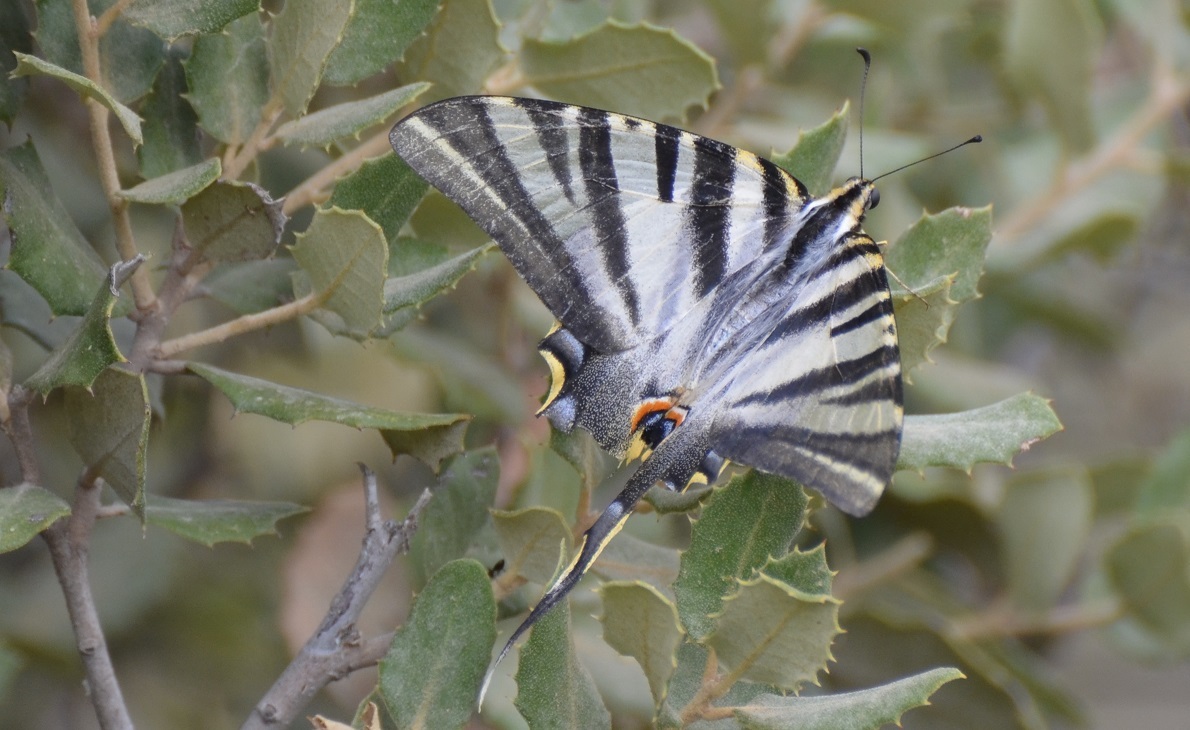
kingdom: Animalia
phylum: Arthropoda
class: Insecta
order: Lepidoptera
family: Papilionidae
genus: Iphiclides
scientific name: Iphiclides feisthamelii
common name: Iberian scarce swallowtail
